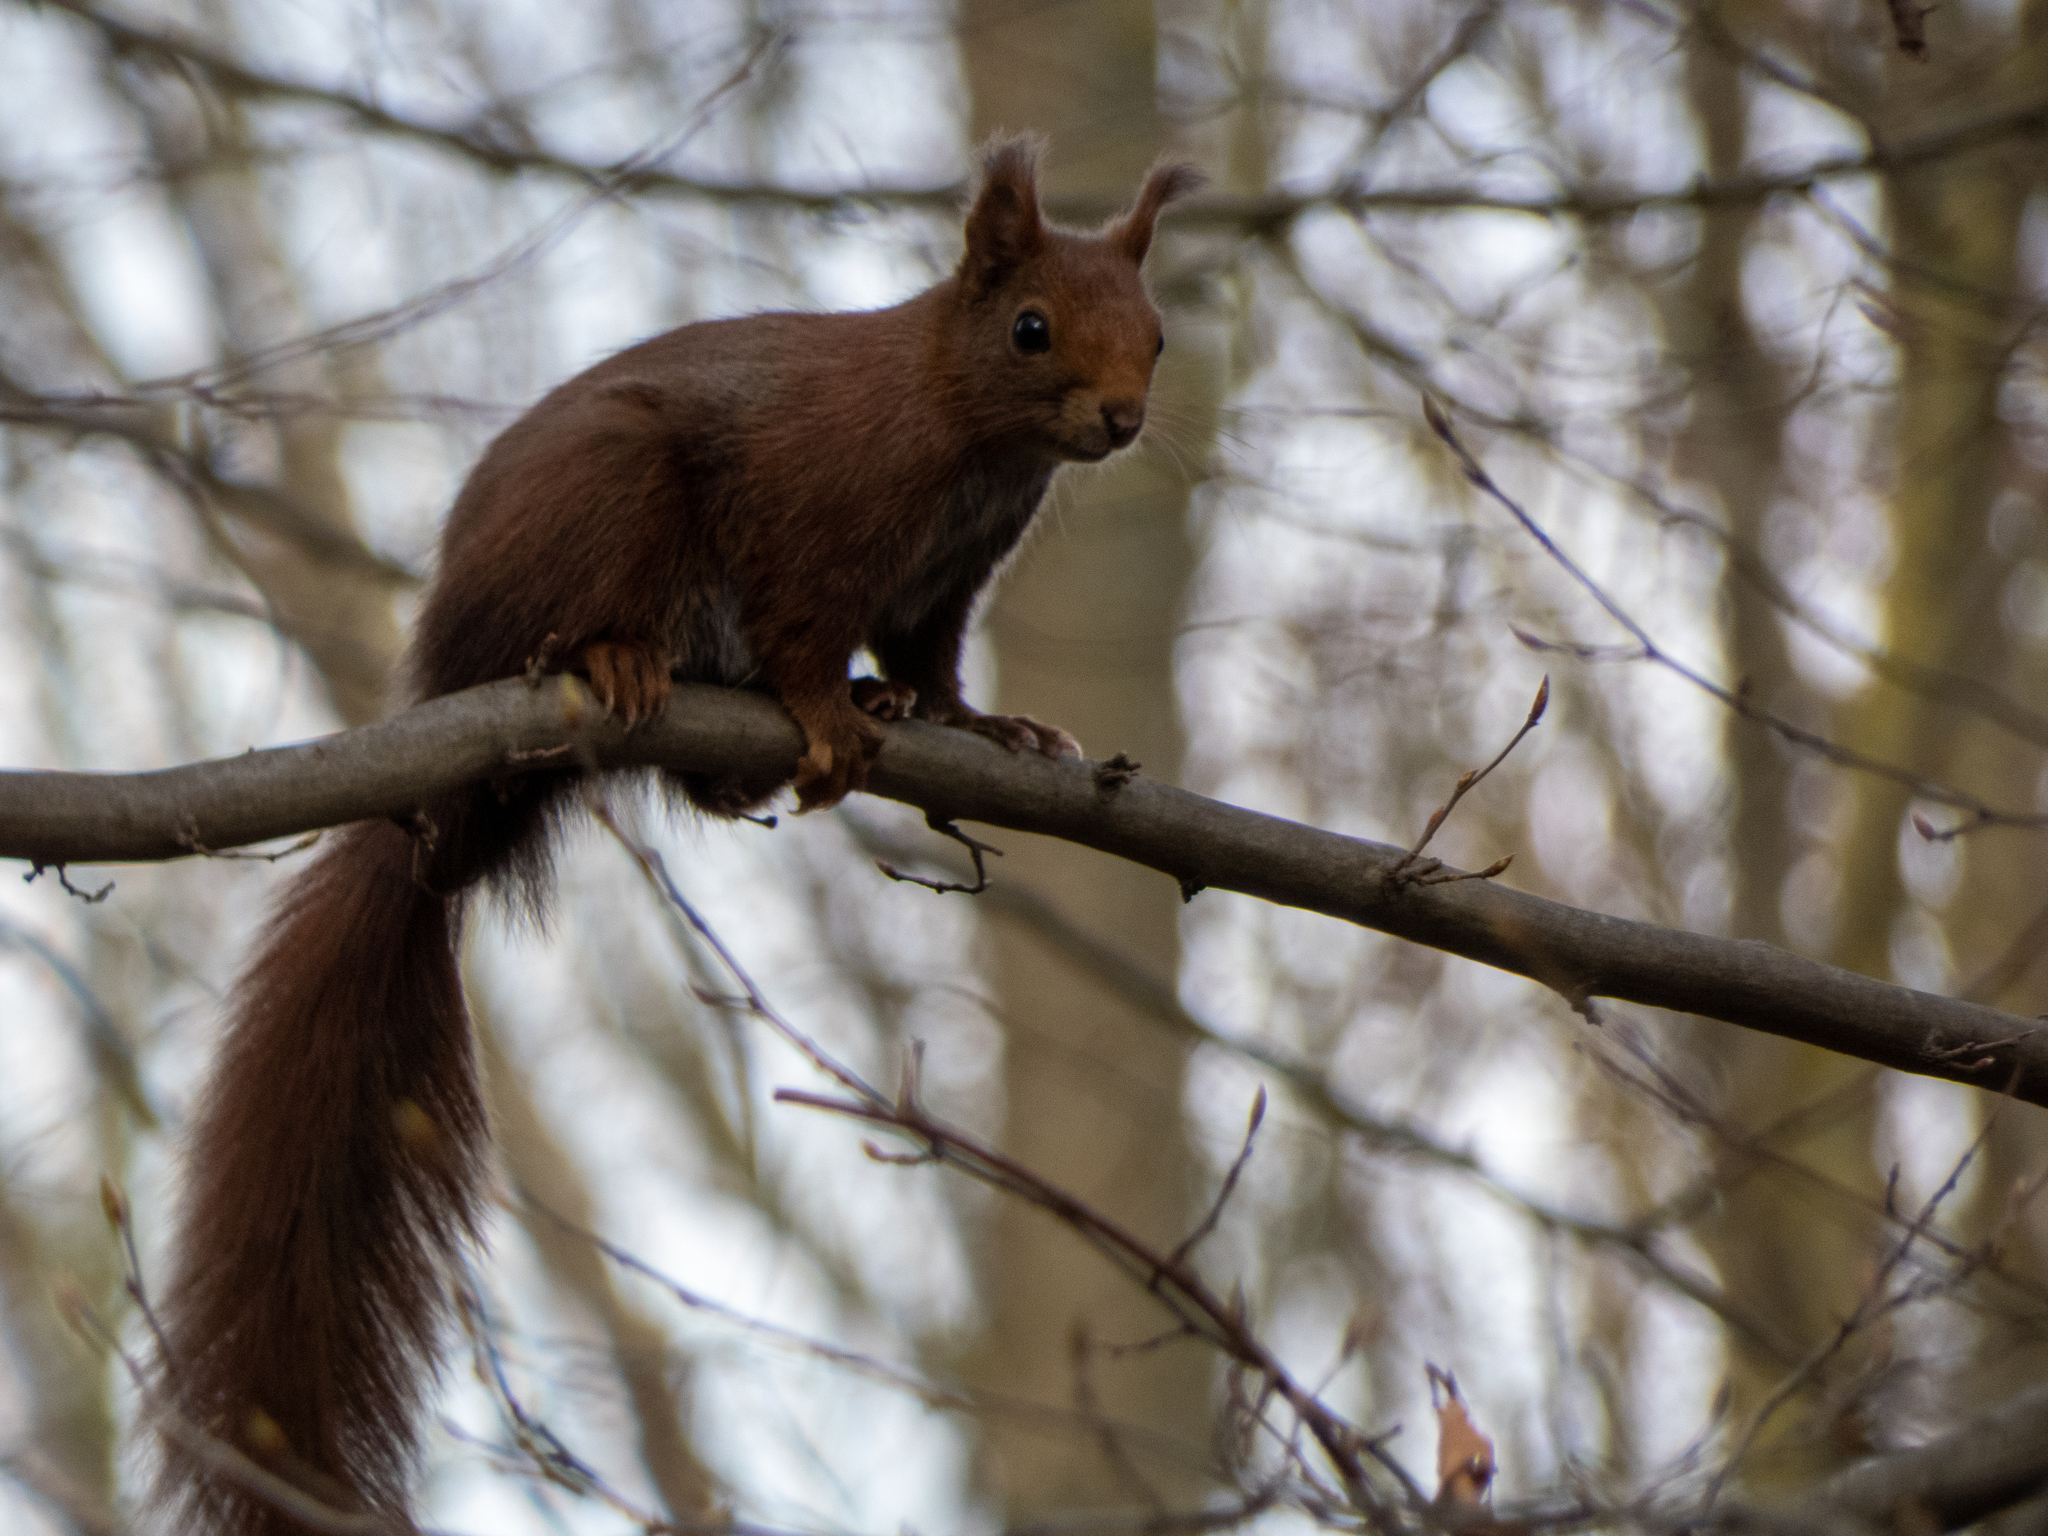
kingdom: Animalia
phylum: Chordata
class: Mammalia
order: Rodentia
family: Sciuridae
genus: Sciurus
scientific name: Sciurus vulgaris
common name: Eurasian red squirrel
